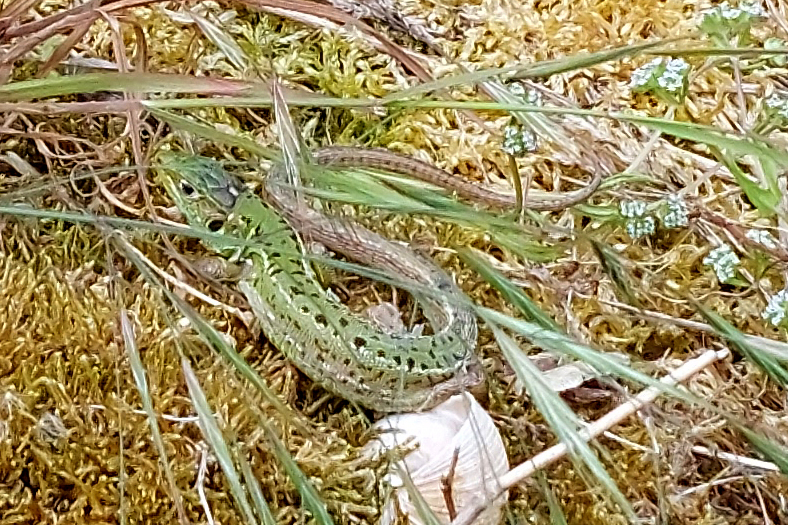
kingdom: Animalia
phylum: Chordata
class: Squamata
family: Lacertidae
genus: Lacerta
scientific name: Lacerta bilineata
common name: Western green lizard
